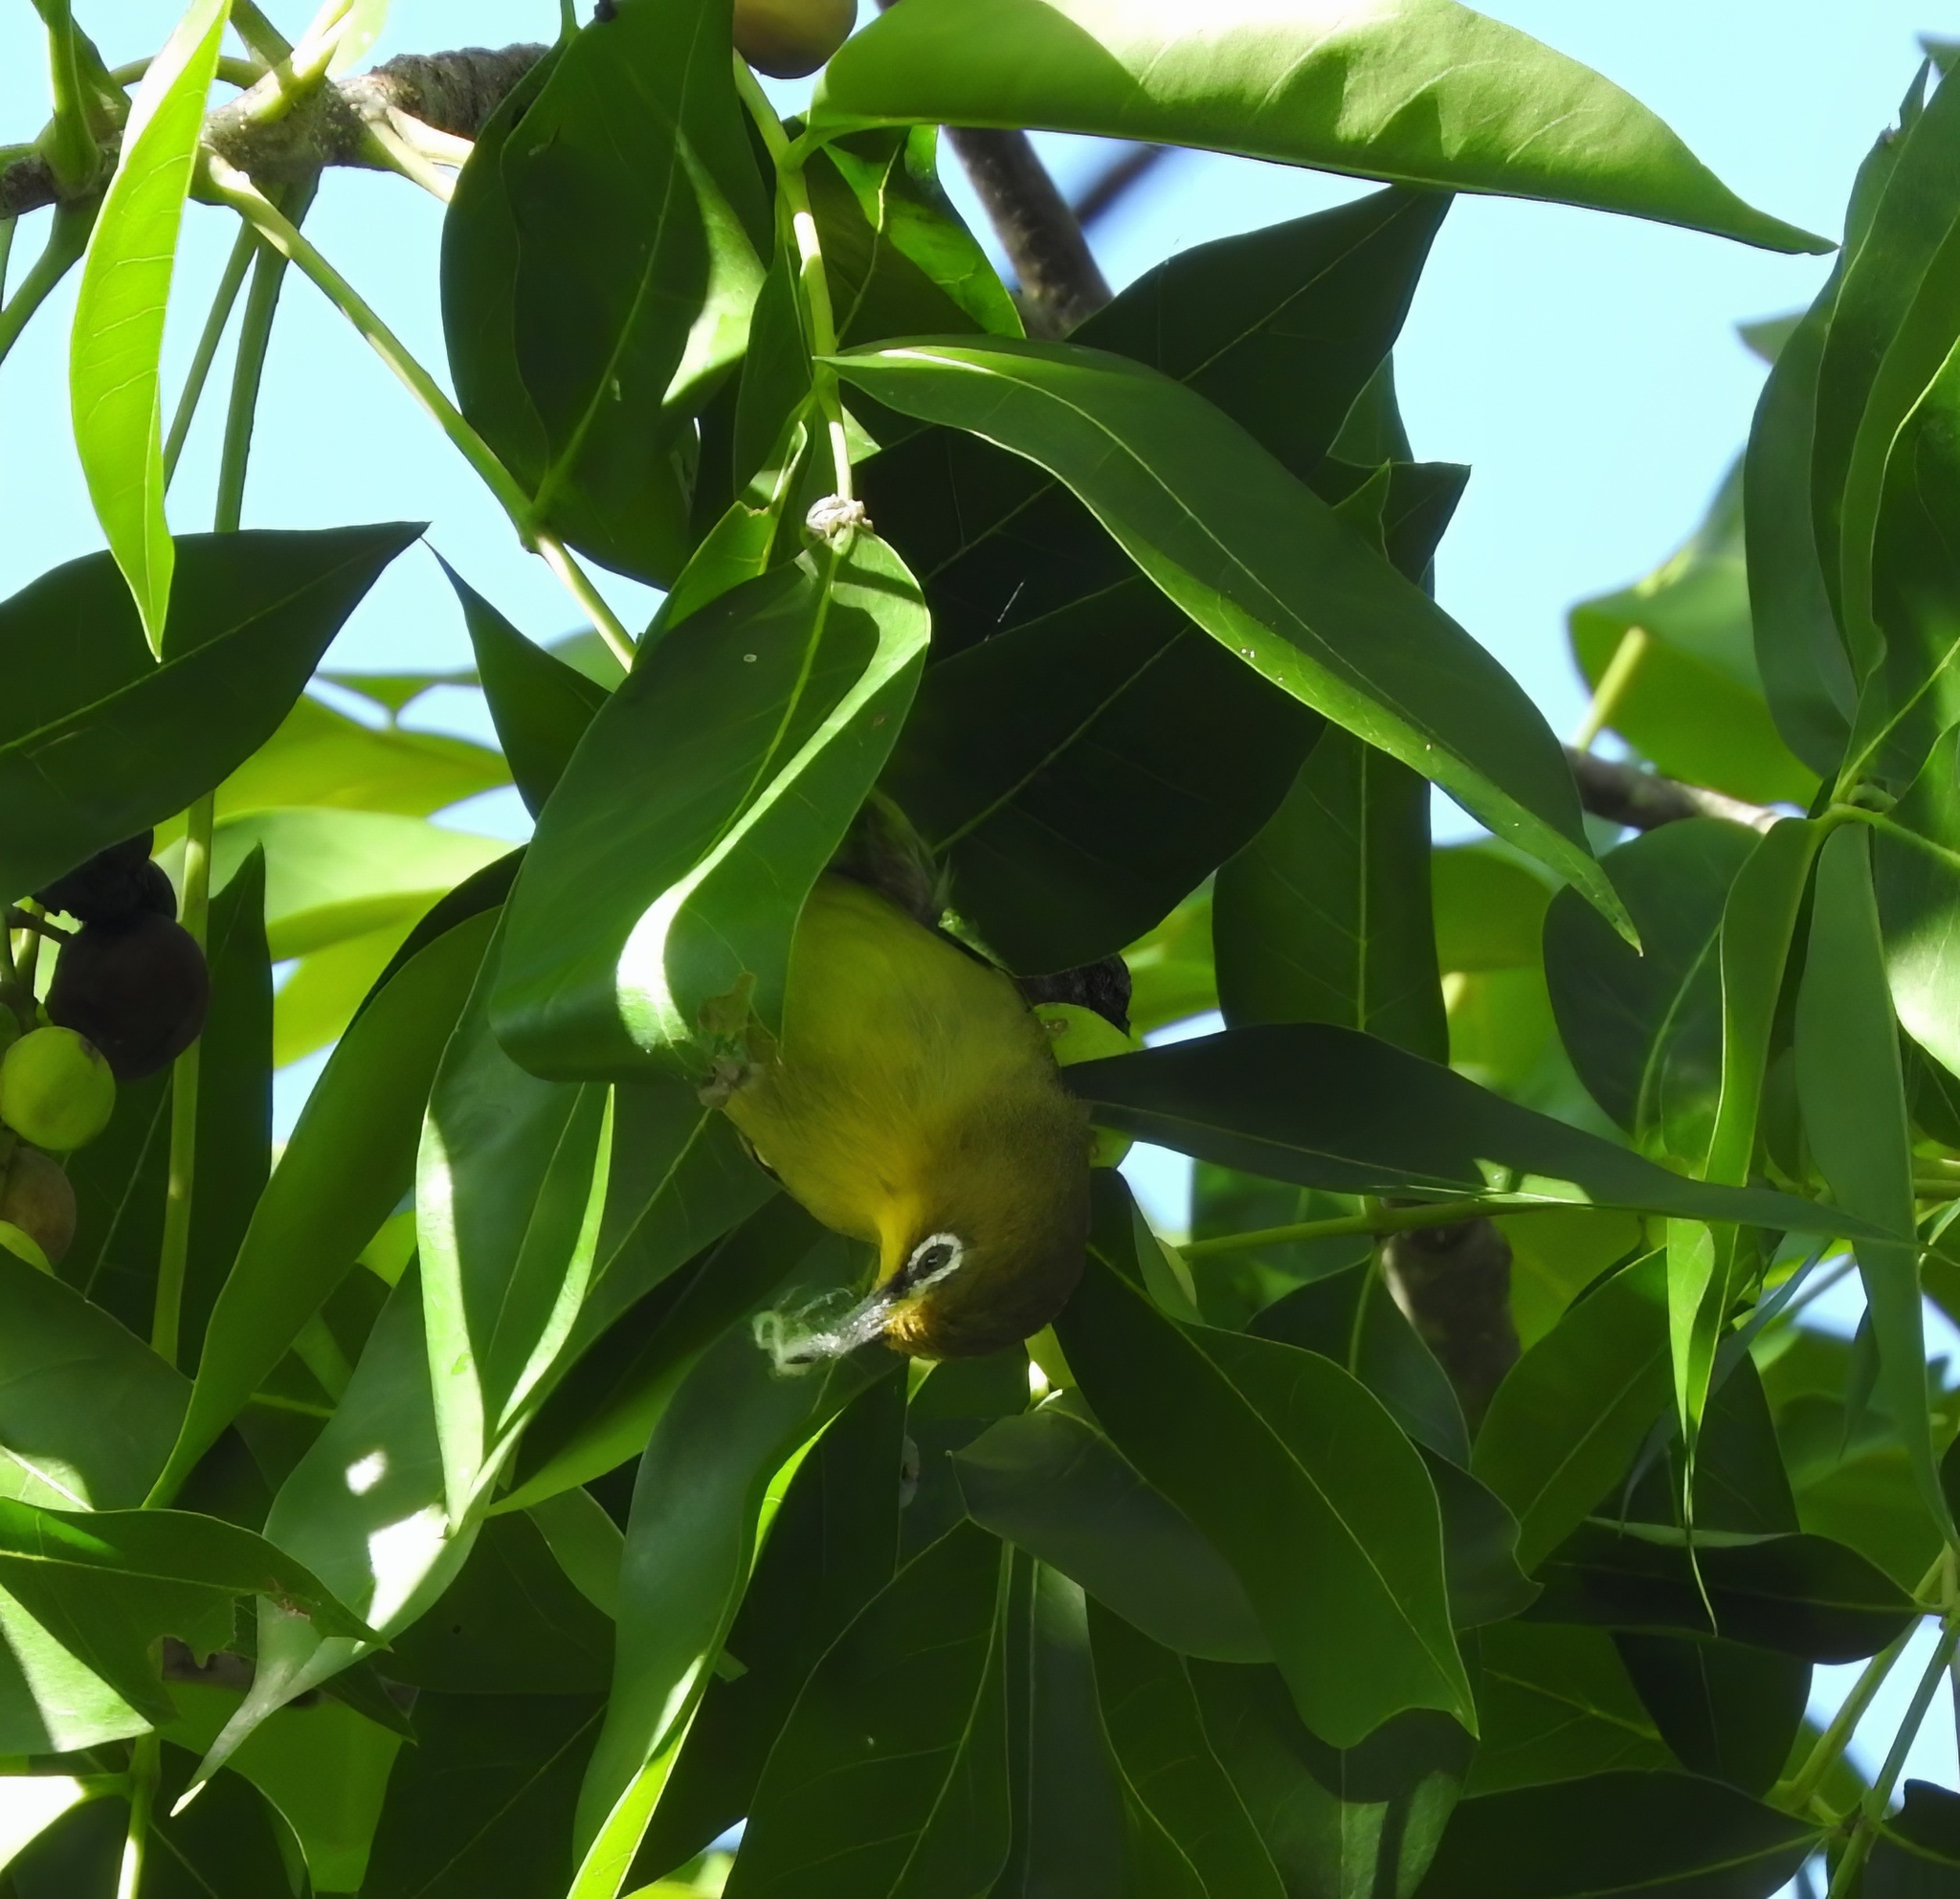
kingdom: Animalia
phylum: Chordata
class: Aves
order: Passeriformes
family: Zosteropidae
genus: Zosterops
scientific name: Zosterops virens
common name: Cape white-eye
